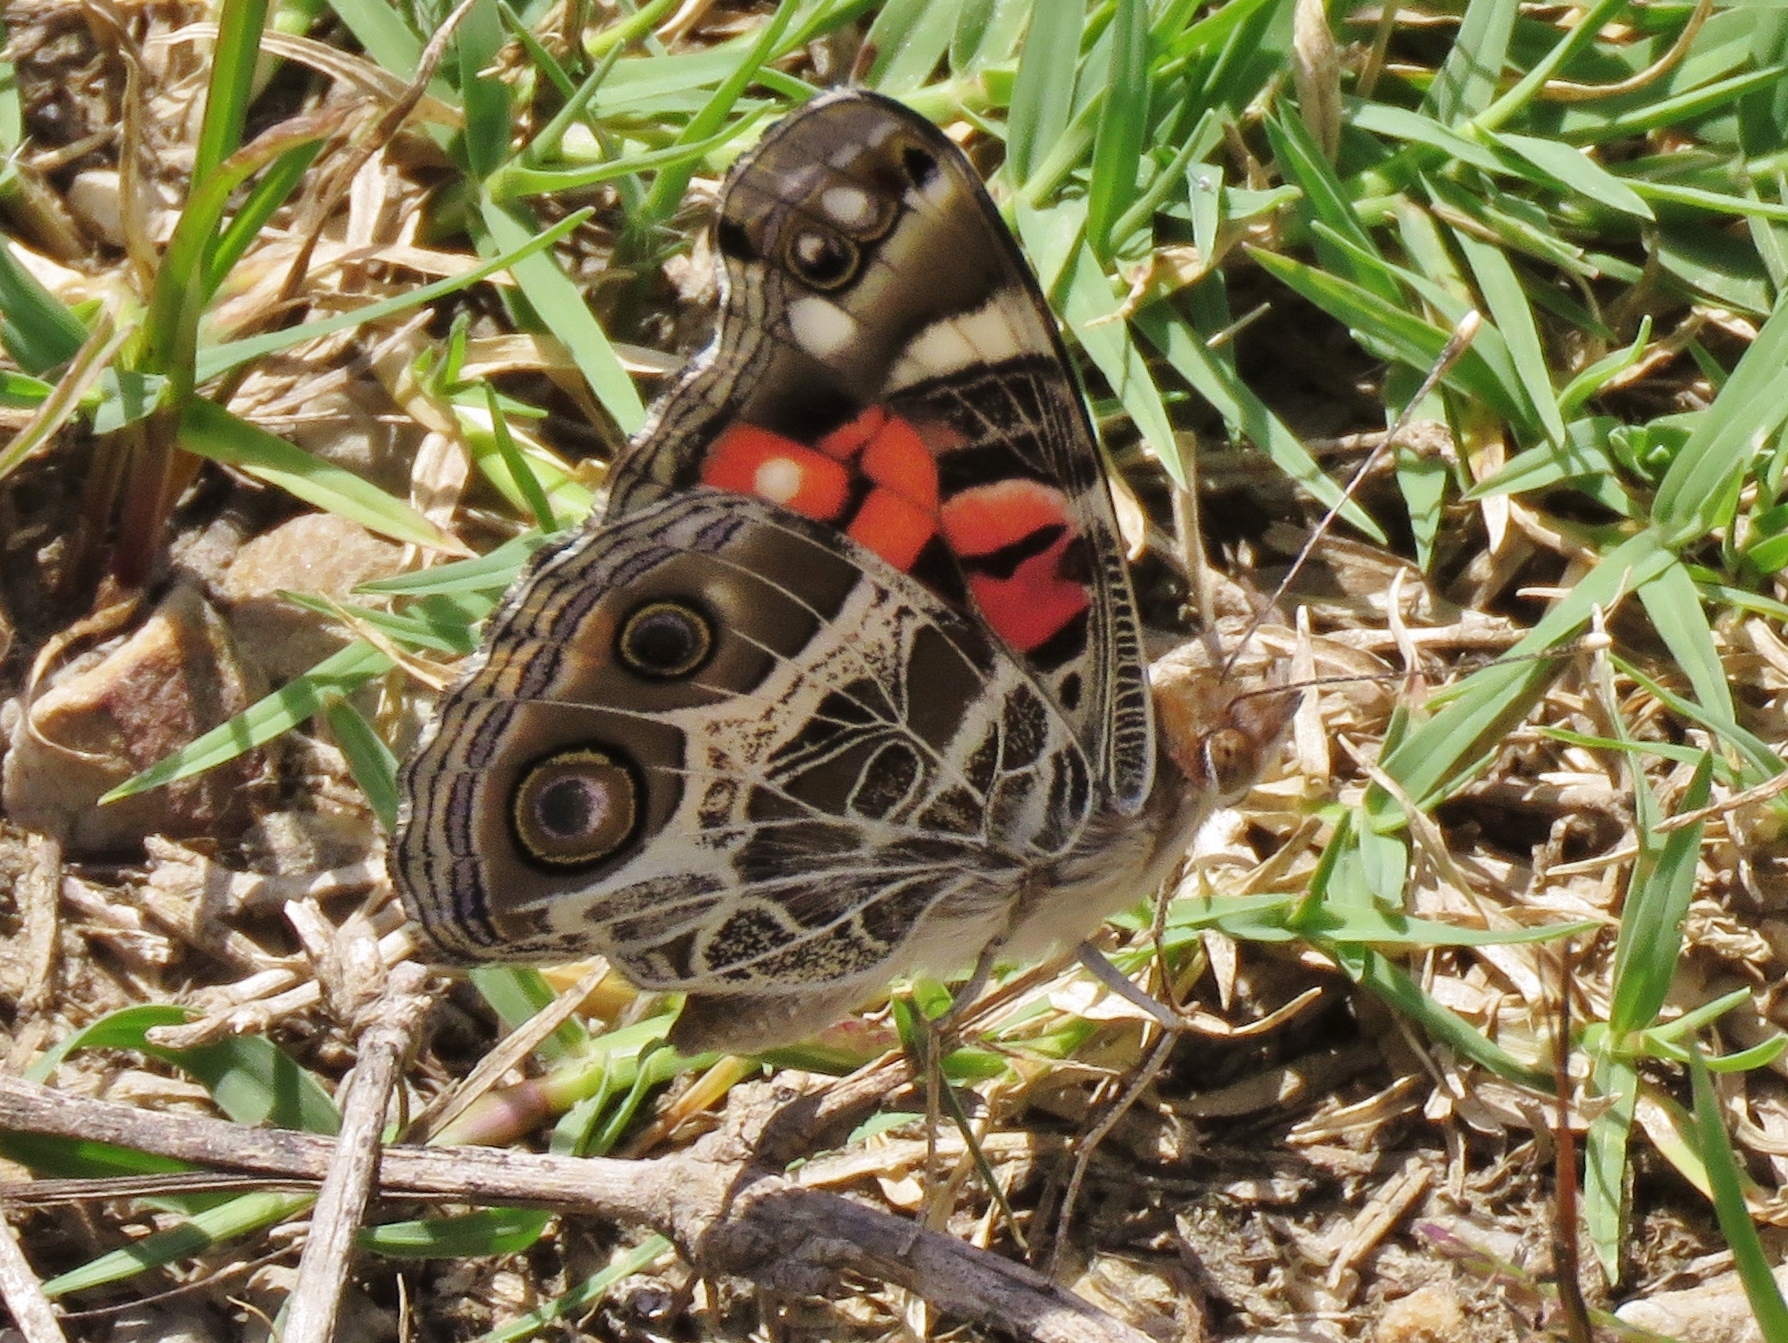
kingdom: Animalia
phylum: Arthropoda
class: Insecta
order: Lepidoptera
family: Nymphalidae
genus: Vanessa
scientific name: Vanessa virginiensis
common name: American lady
